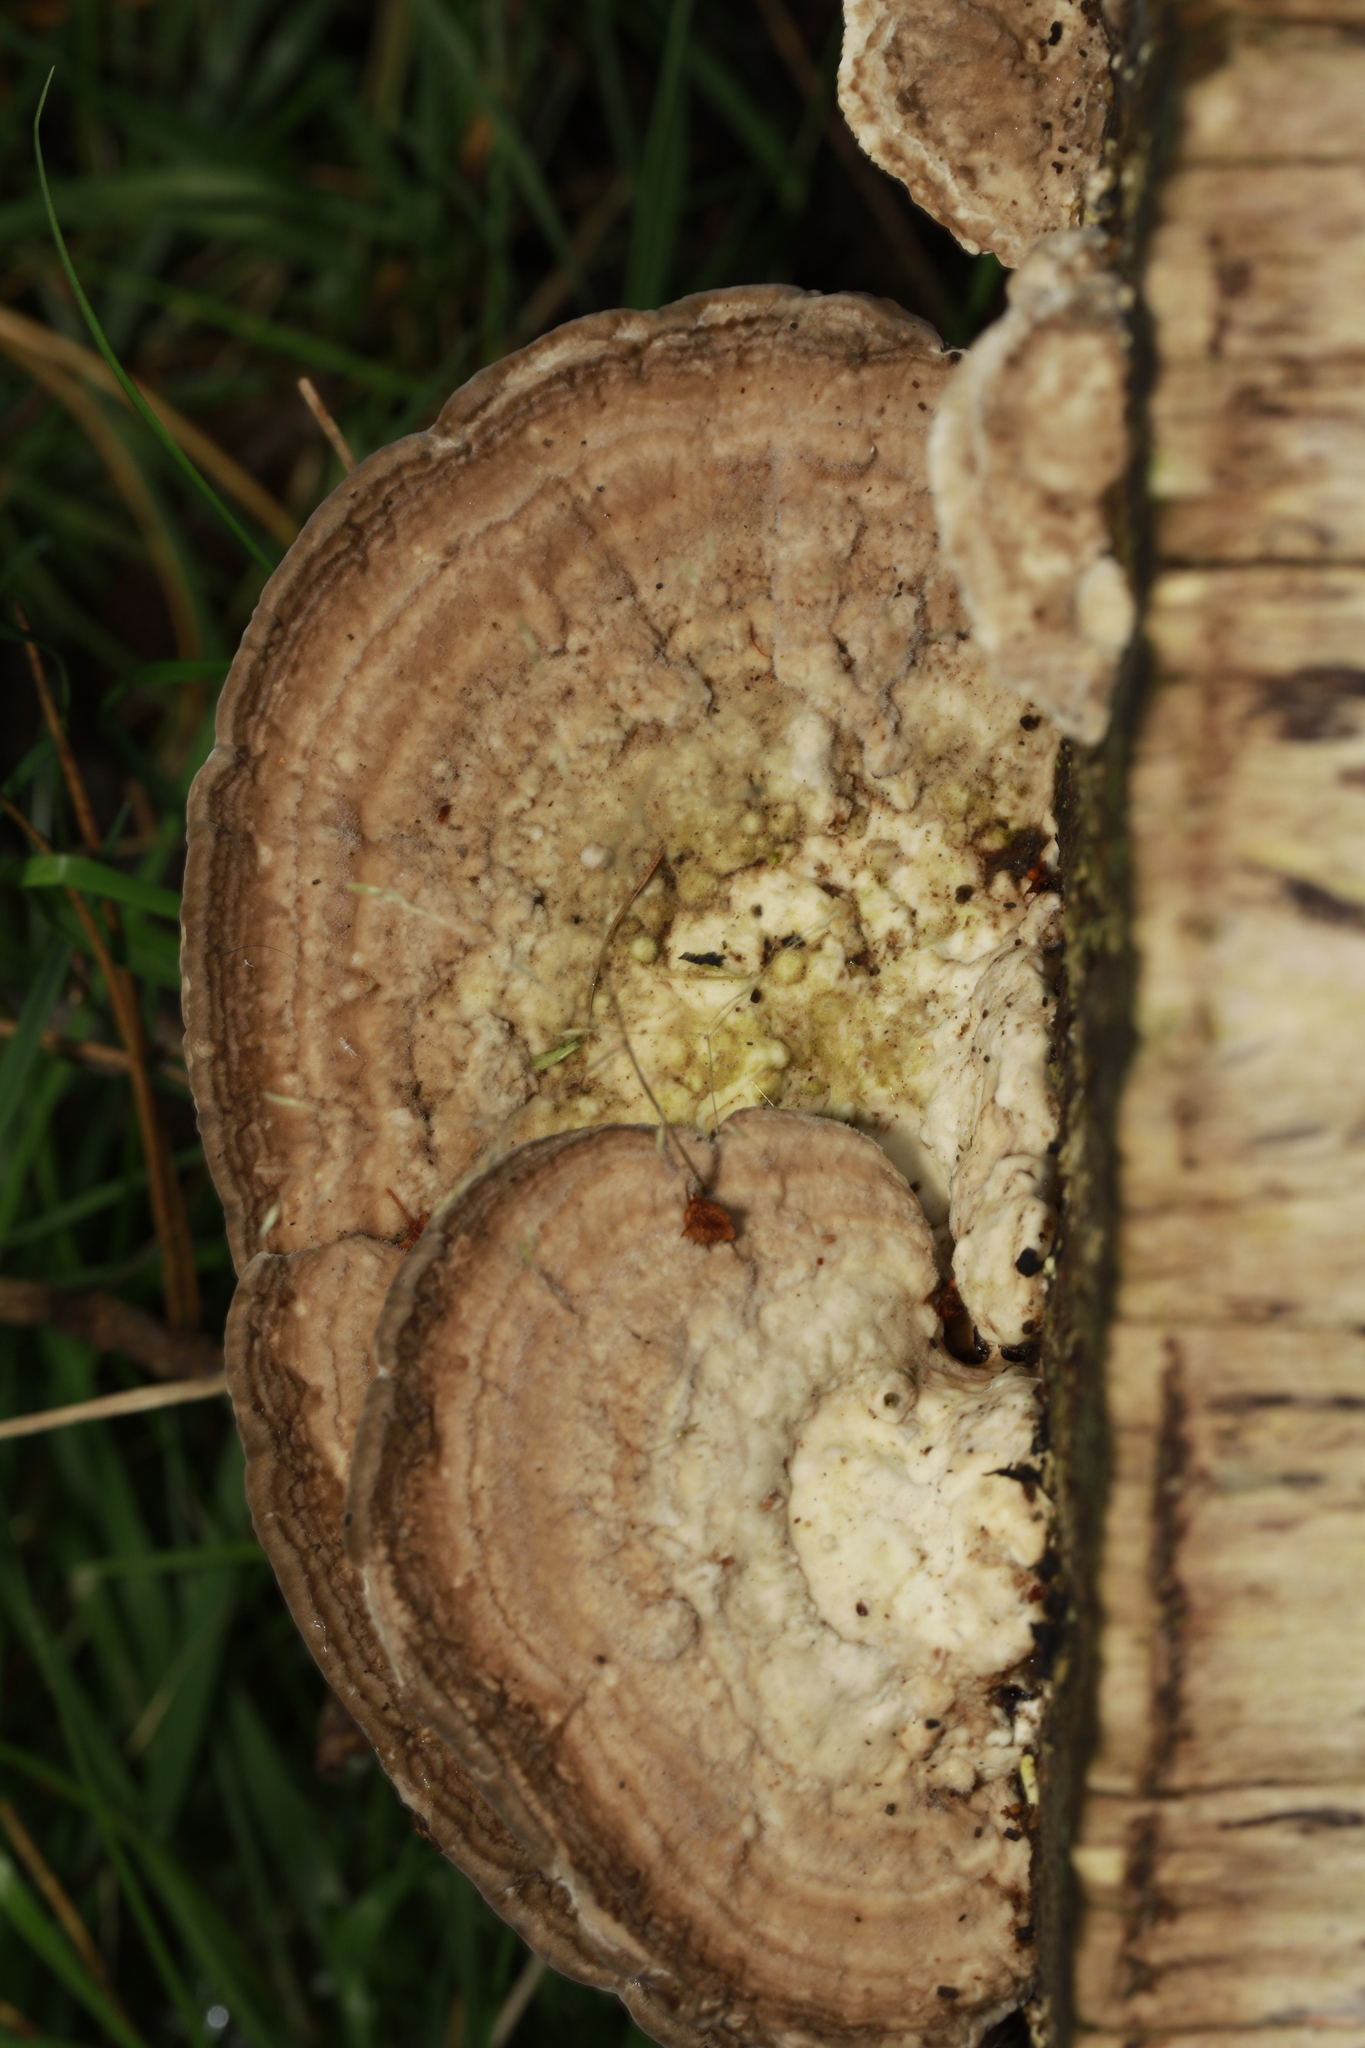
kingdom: Fungi
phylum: Basidiomycota
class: Agaricomycetes
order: Polyporales
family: Polyporaceae
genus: Trametes
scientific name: Trametes gibbosa
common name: Lumpy bracket
